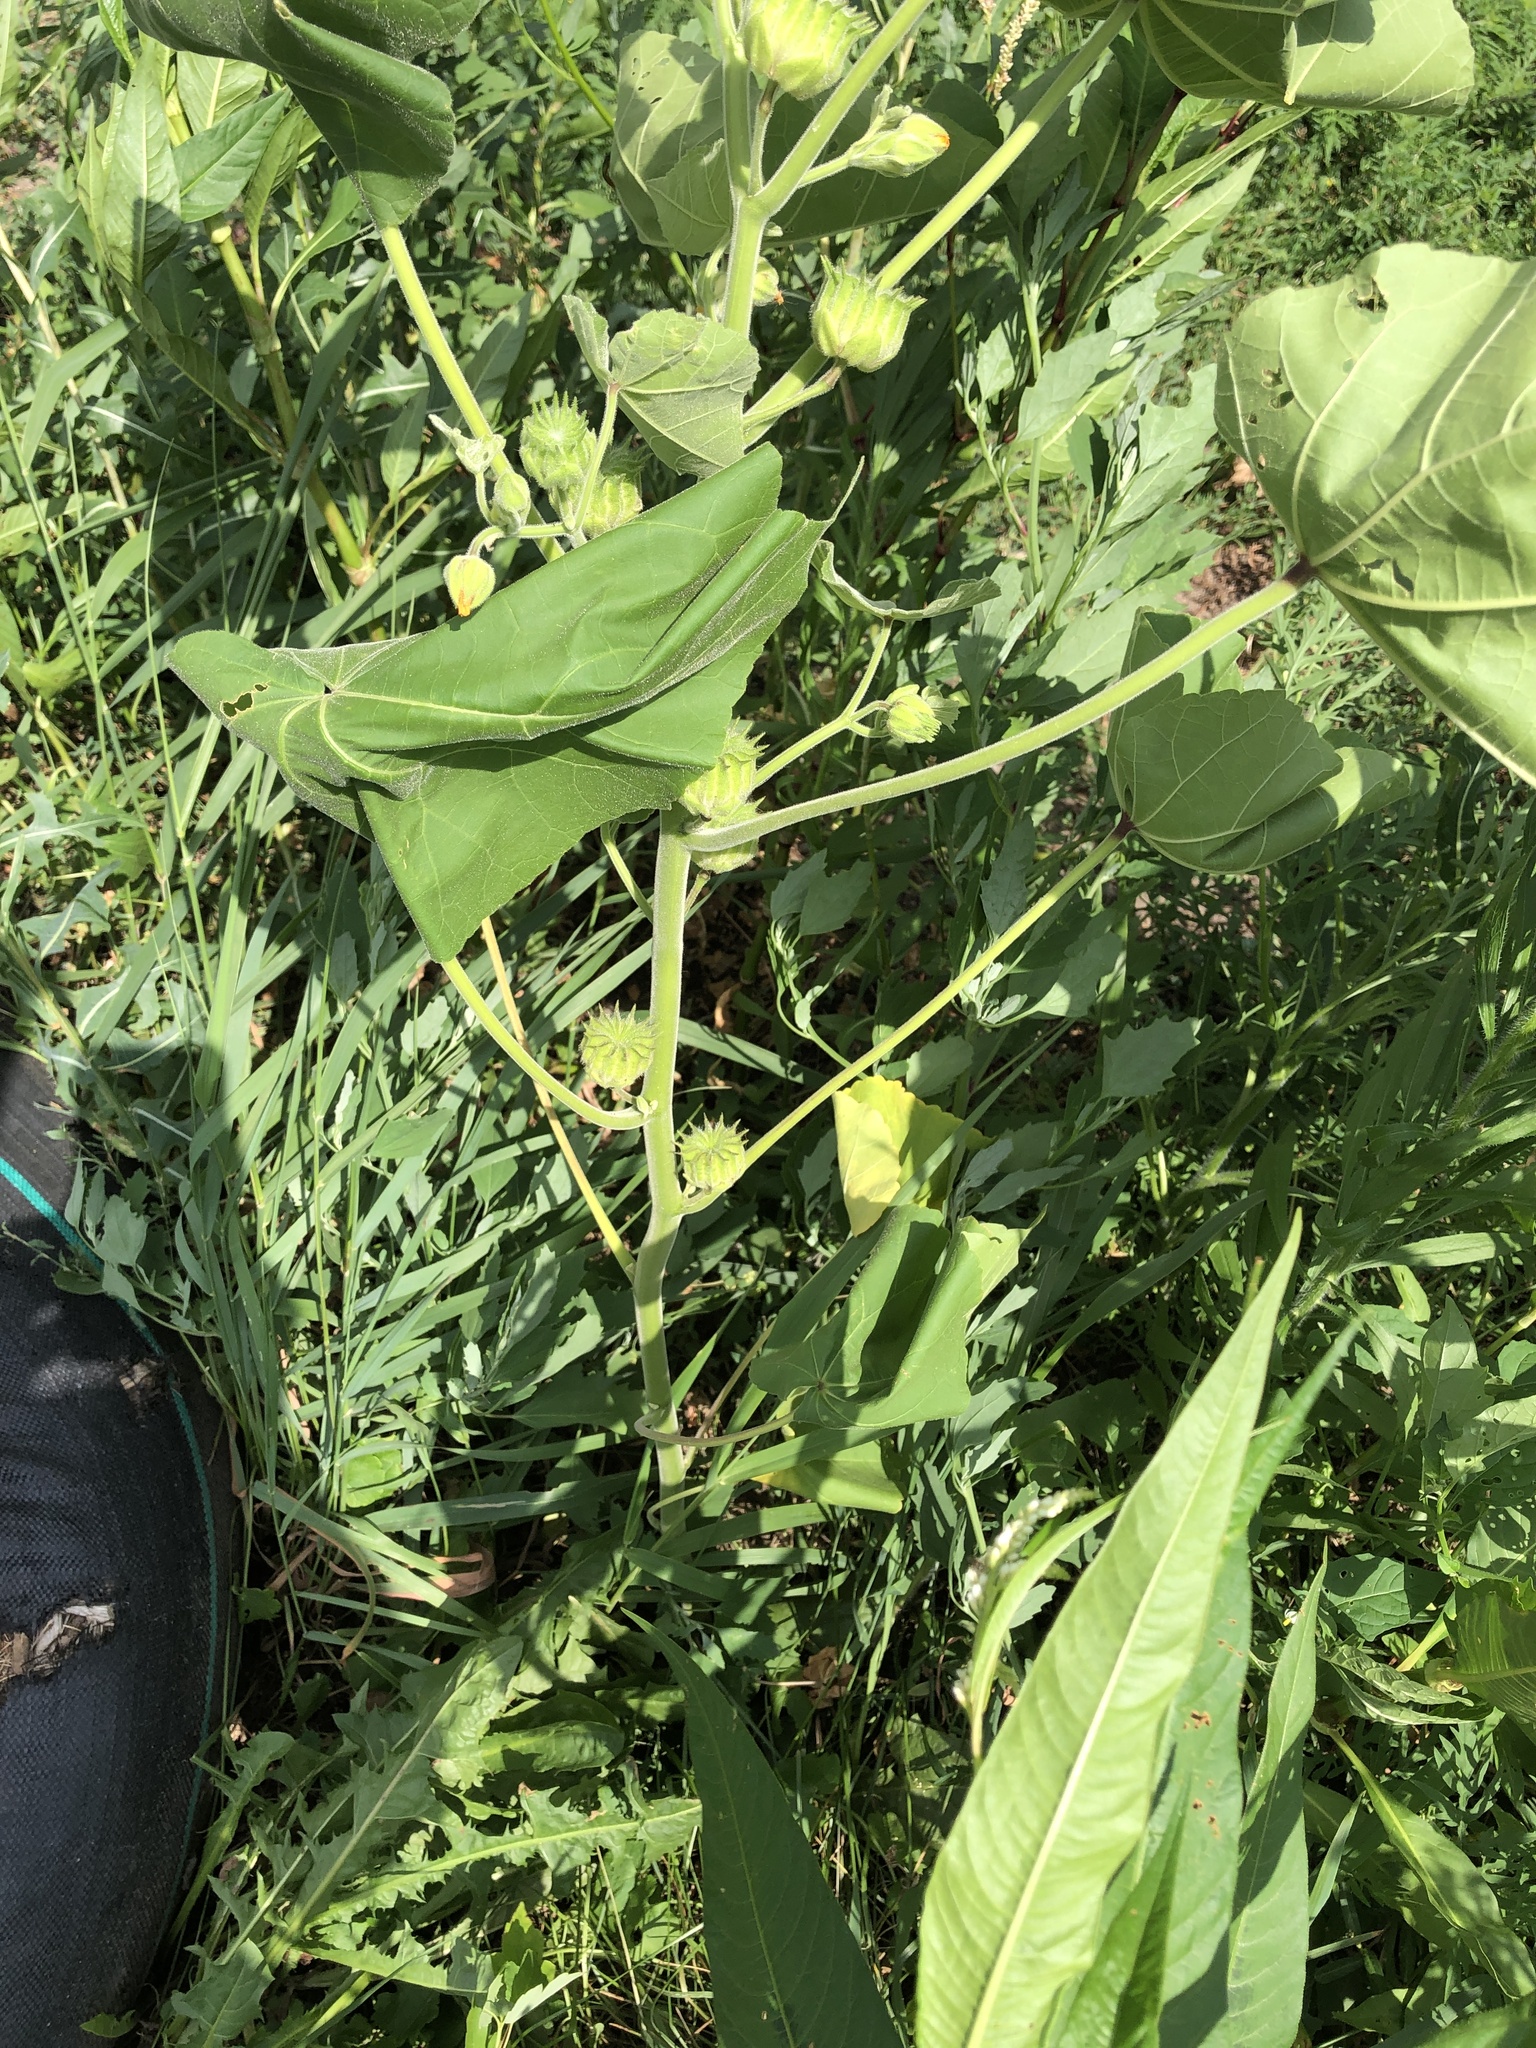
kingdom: Plantae
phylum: Tracheophyta
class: Magnoliopsida
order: Malvales
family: Malvaceae
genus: Abutilon
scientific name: Abutilon theophrasti
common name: Velvetleaf
